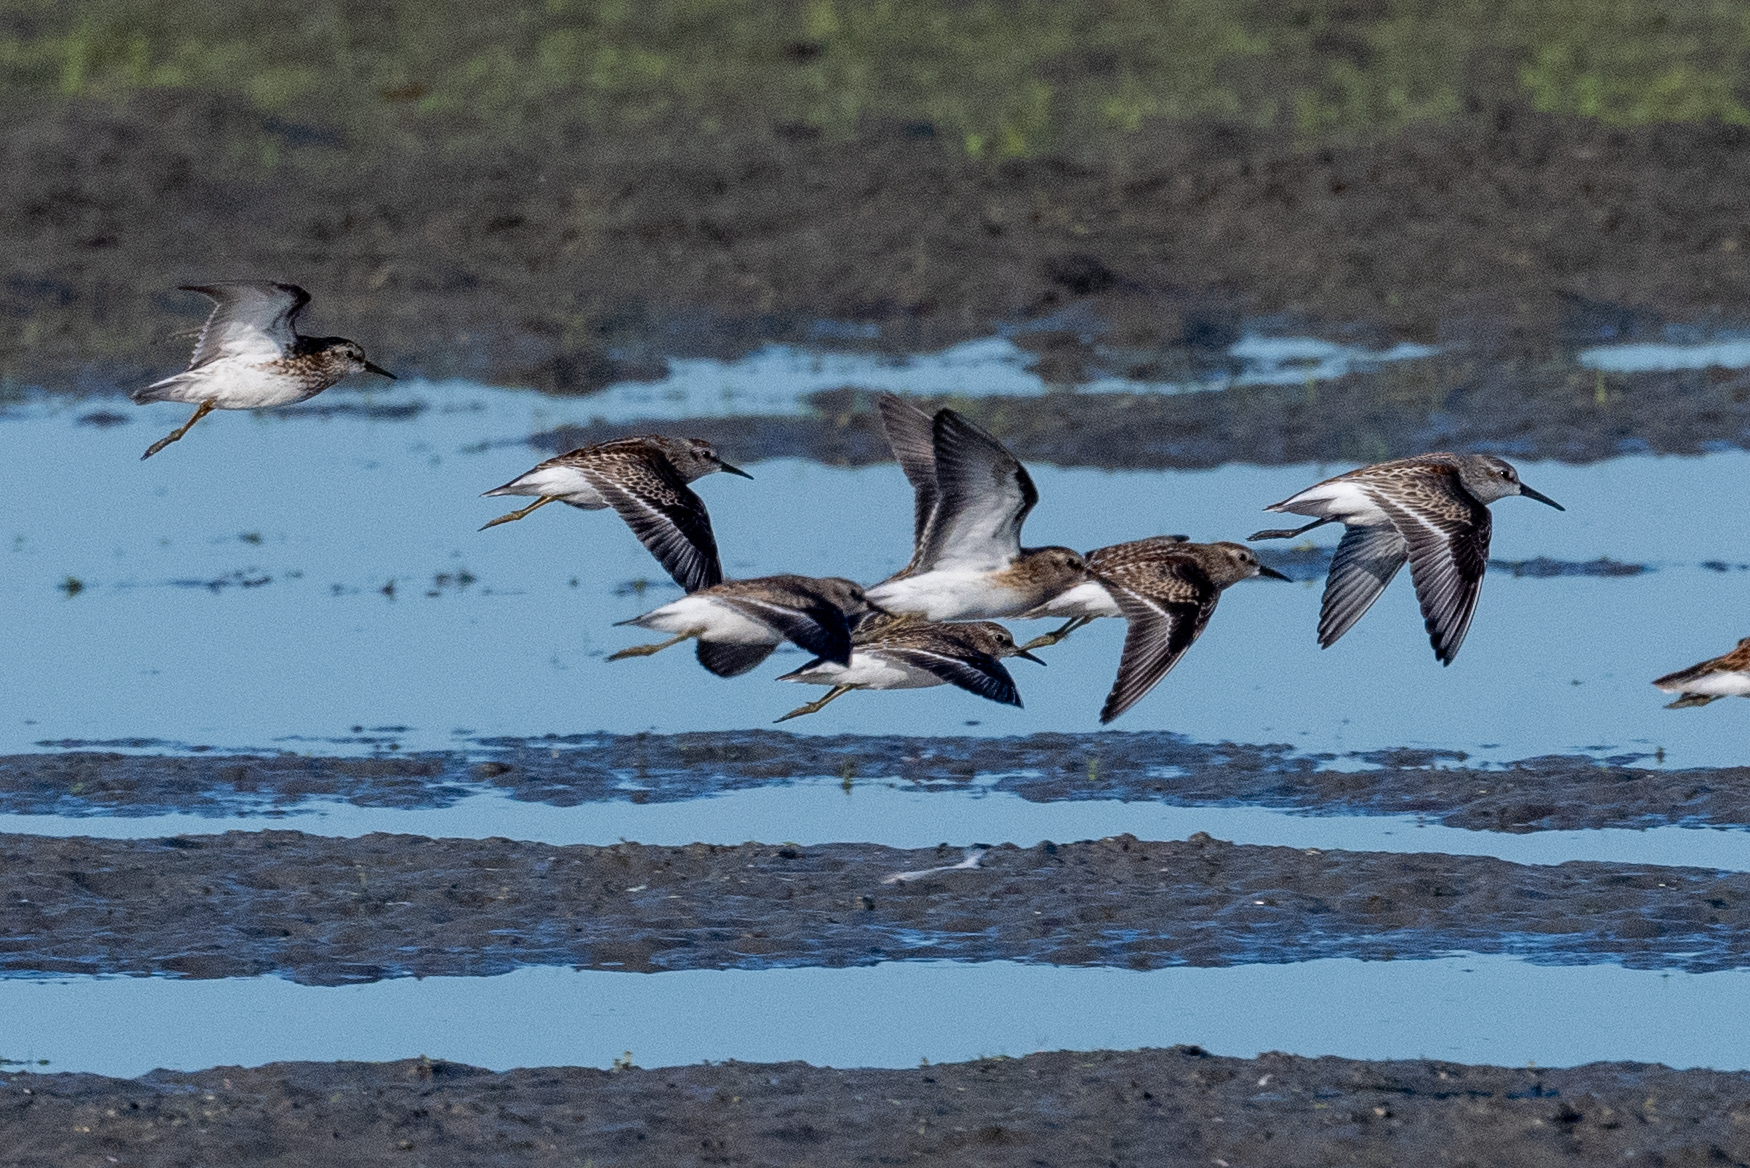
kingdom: Animalia
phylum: Chordata
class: Aves
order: Charadriiformes
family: Scolopacidae
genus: Calidris
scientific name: Calidris minutilla
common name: Least sandpiper
